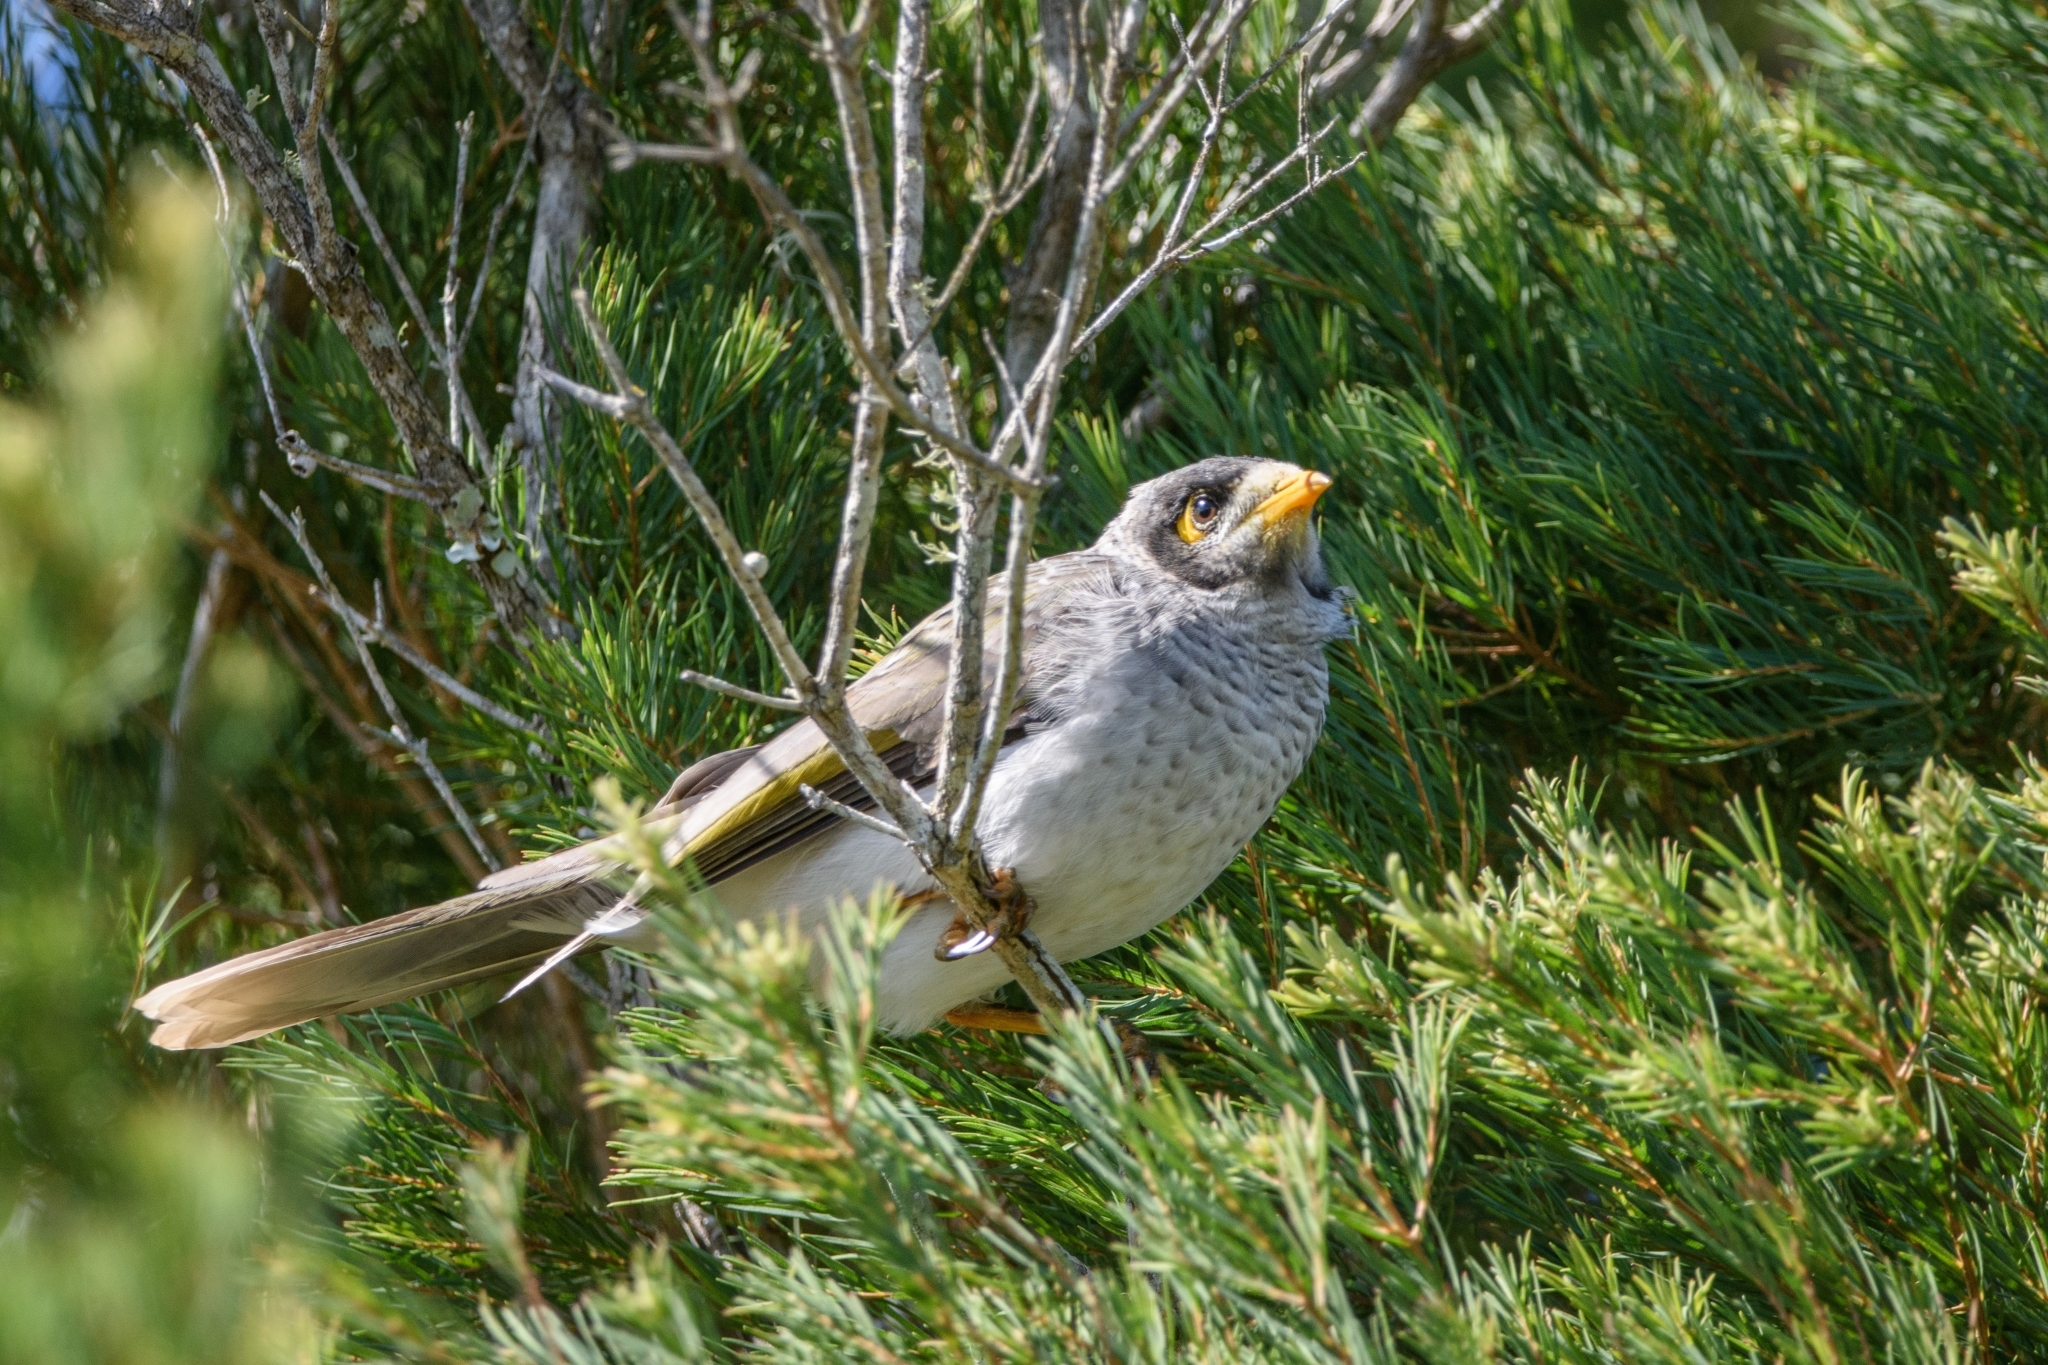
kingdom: Animalia
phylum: Chordata
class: Aves
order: Passeriformes
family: Meliphagidae
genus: Manorina
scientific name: Manorina melanocephala
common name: Noisy miner
